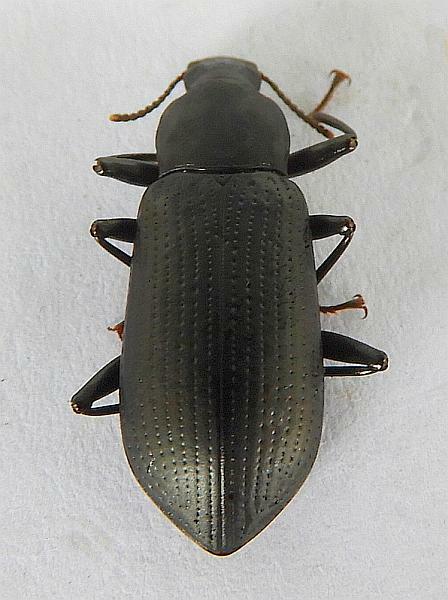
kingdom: Animalia
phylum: Arthropoda
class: Insecta
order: Coleoptera
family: Tenebrionidae
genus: Alobates
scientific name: Alobates barbatus
